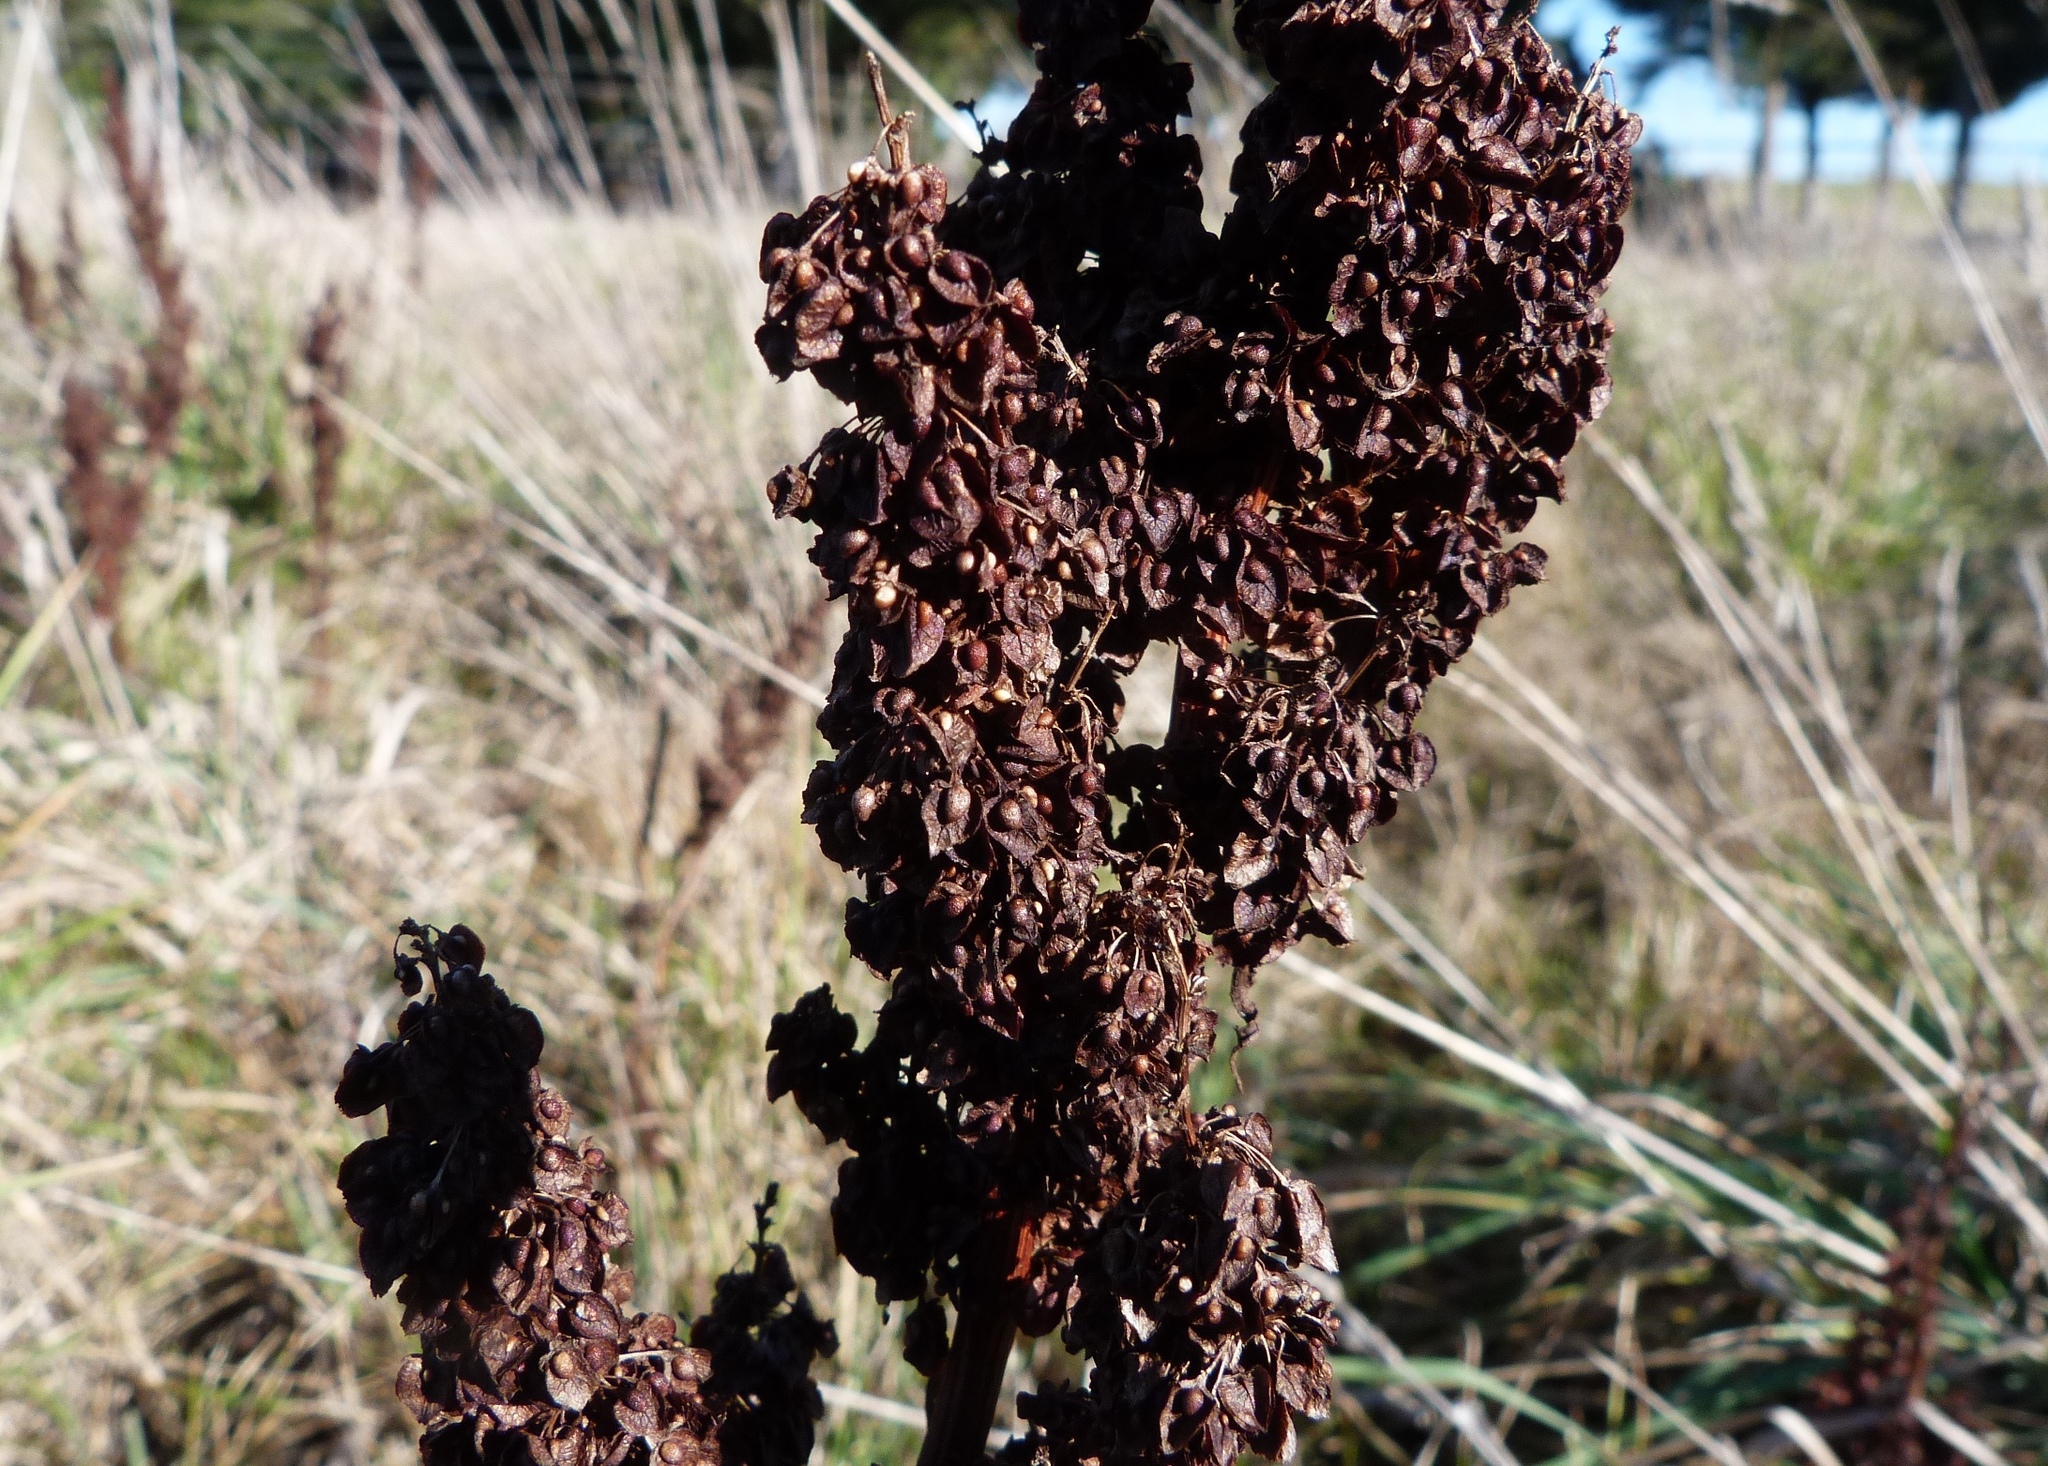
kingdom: Plantae
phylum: Tracheophyta
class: Magnoliopsida
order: Caryophyllales
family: Polygonaceae
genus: Rumex
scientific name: Rumex obtusifolius
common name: Bitter dock
